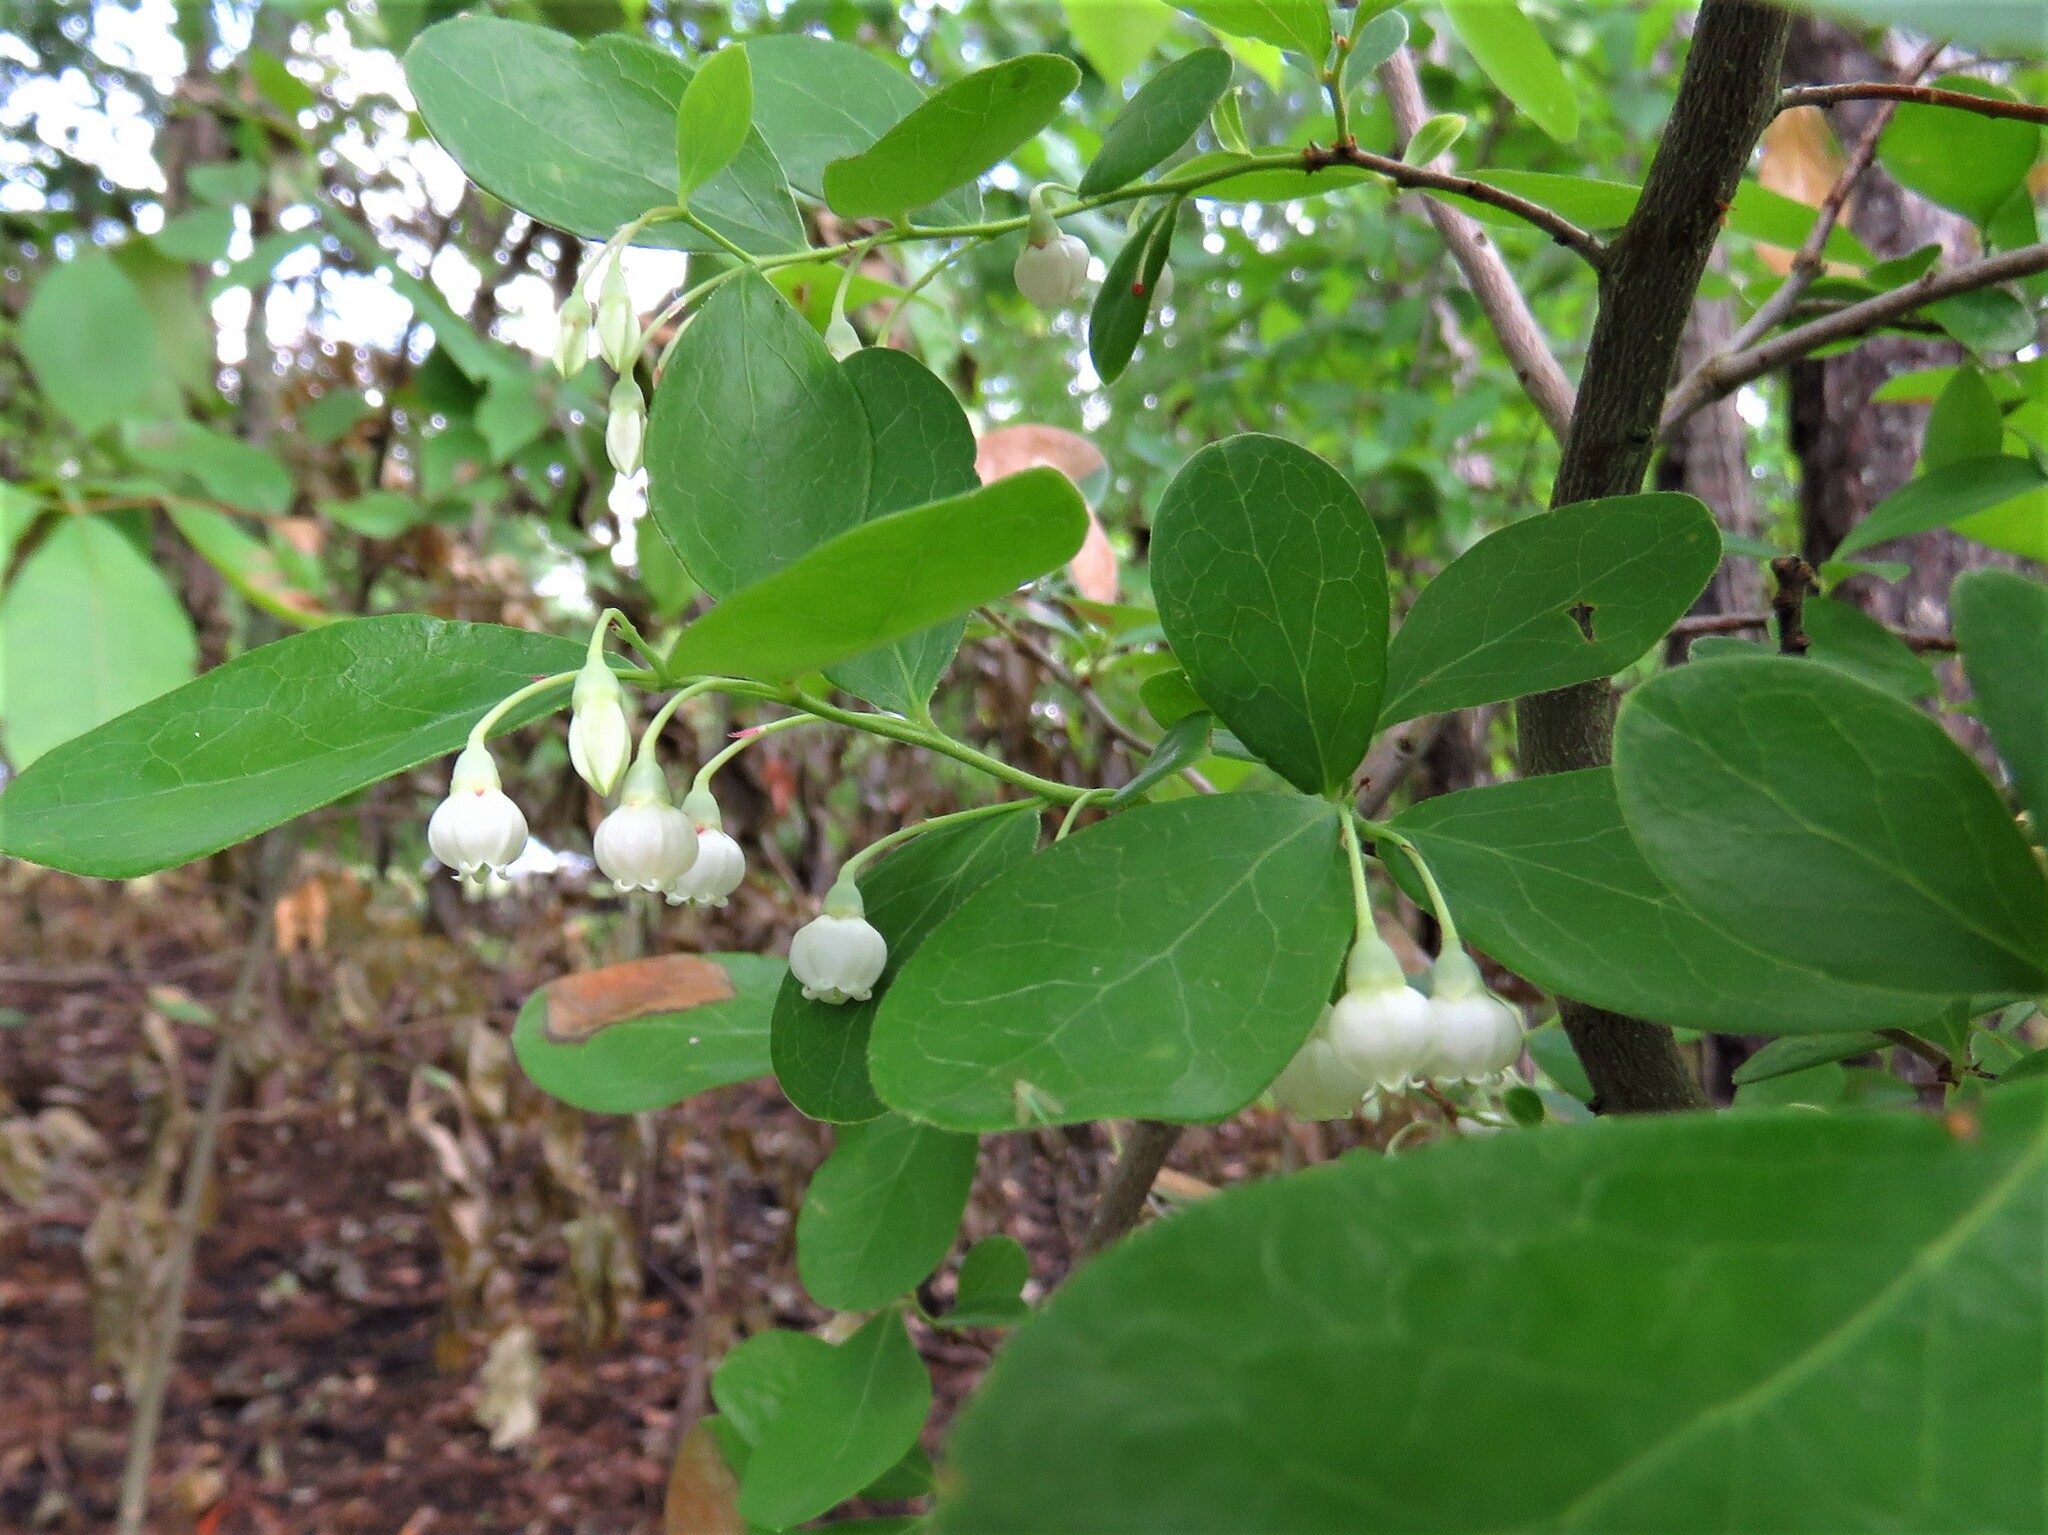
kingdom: Plantae
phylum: Tracheophyta
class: Magnoliopsida
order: Ericales
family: Ericaceae
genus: Vaccinium
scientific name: Vaccinium arboreum
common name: Farkleberry
